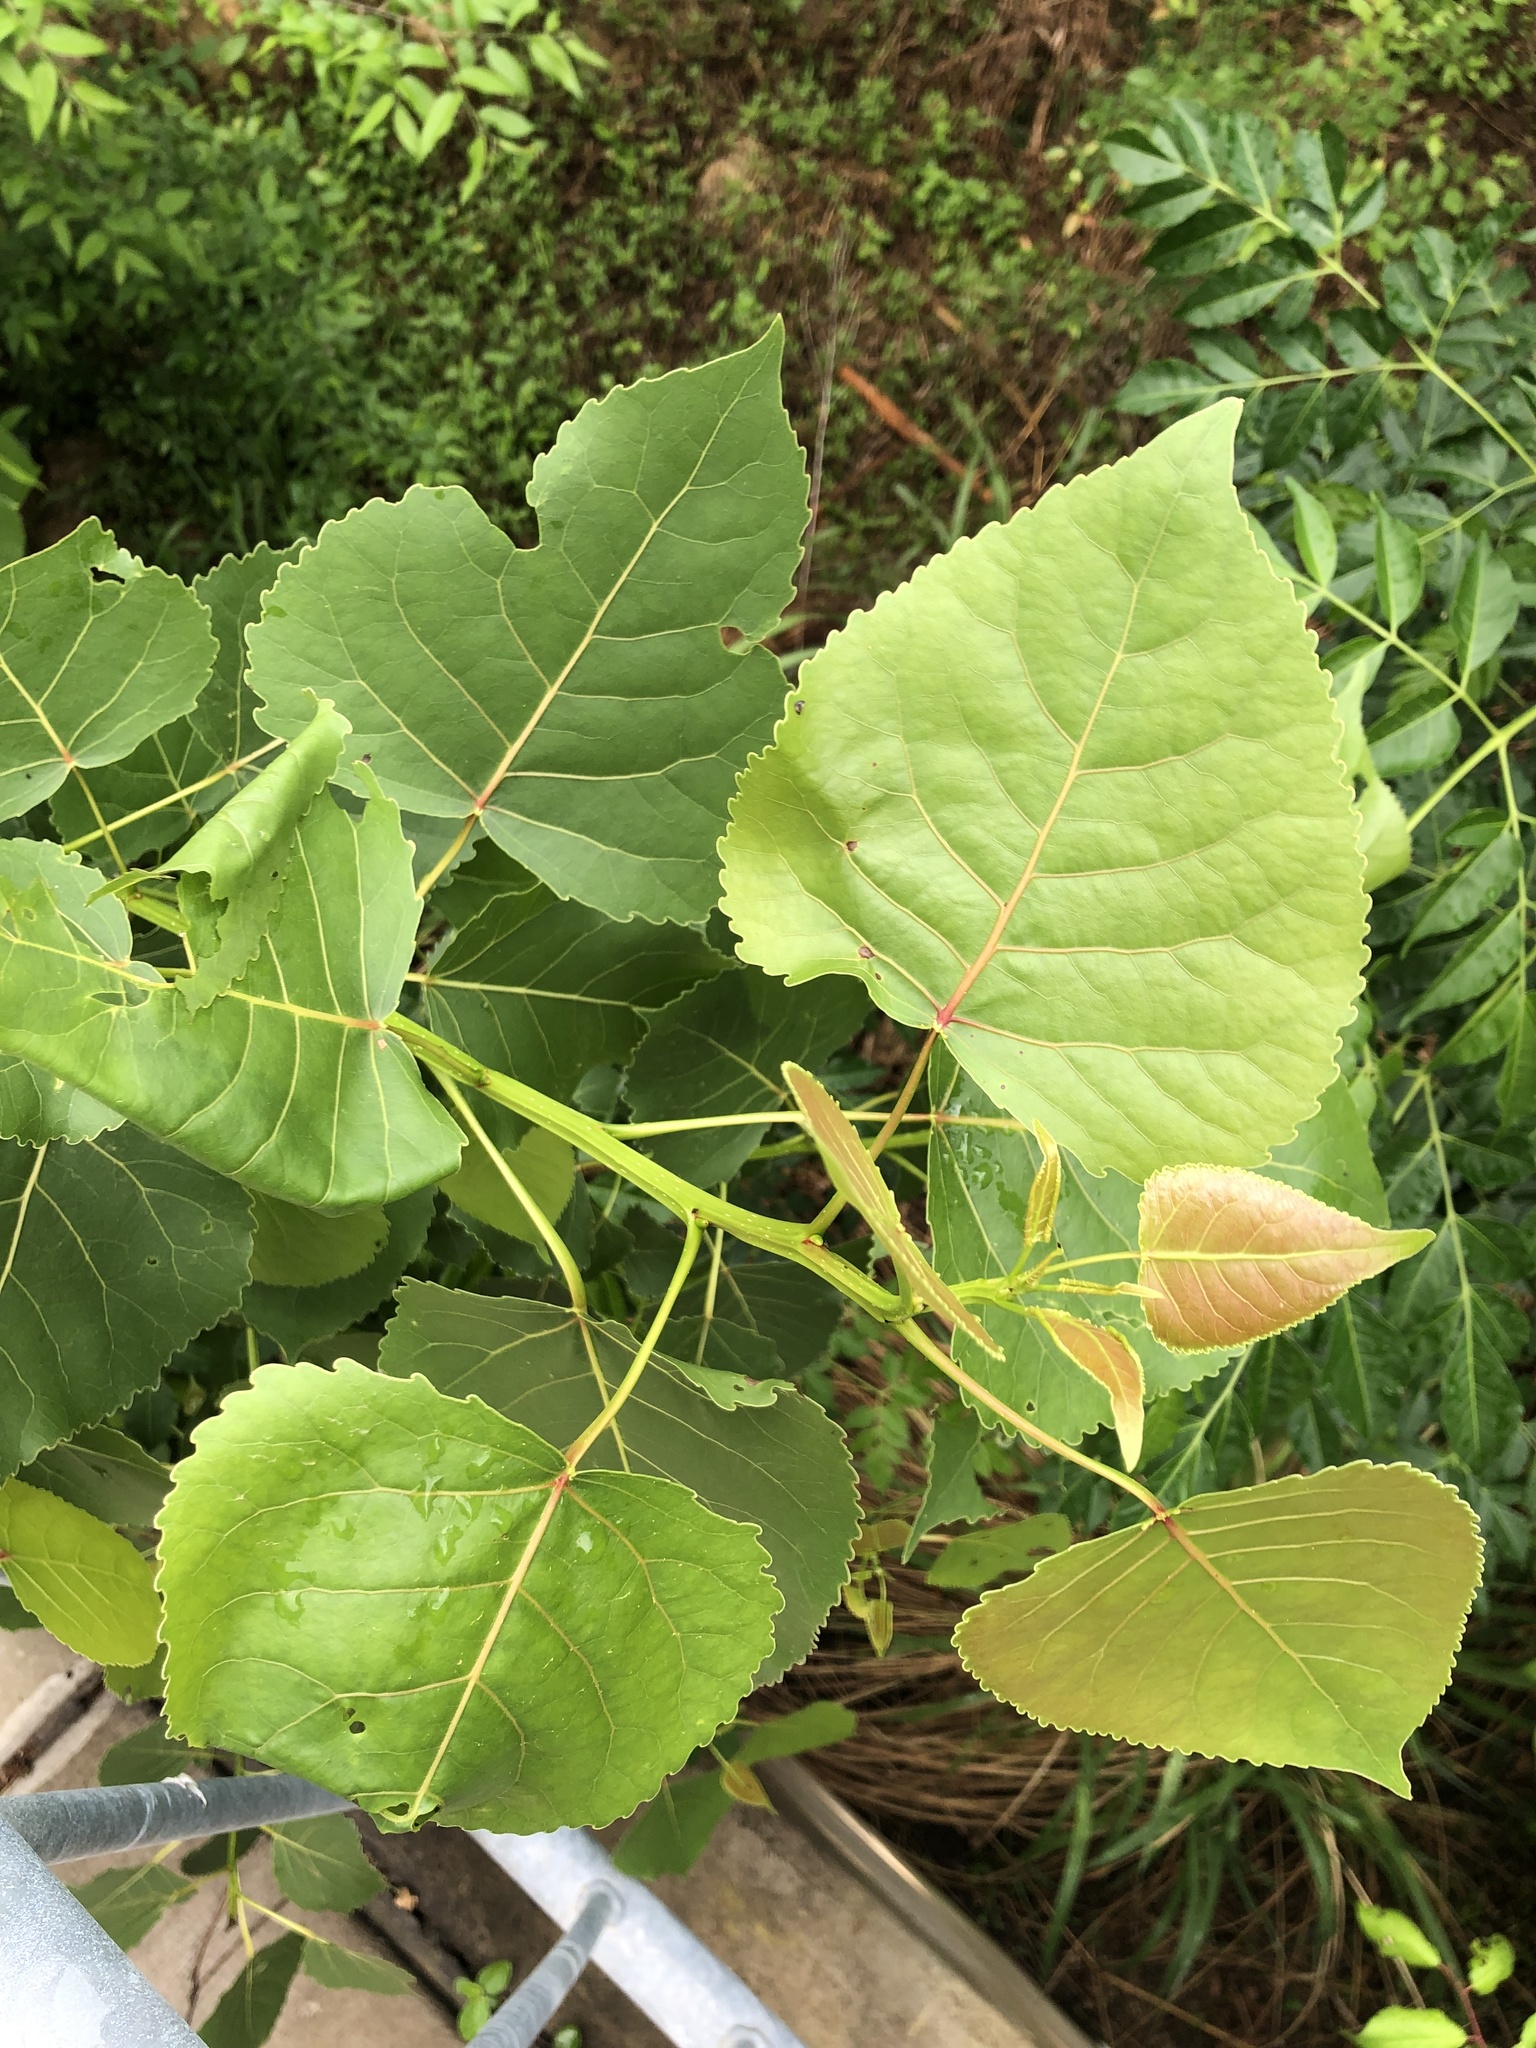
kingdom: Plantae
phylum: Tracheophyta
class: Magnoliopsida
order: Malpighiales
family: Salicaceae
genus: Populus
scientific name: Populus deltoides
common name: Eastern cottonwood
